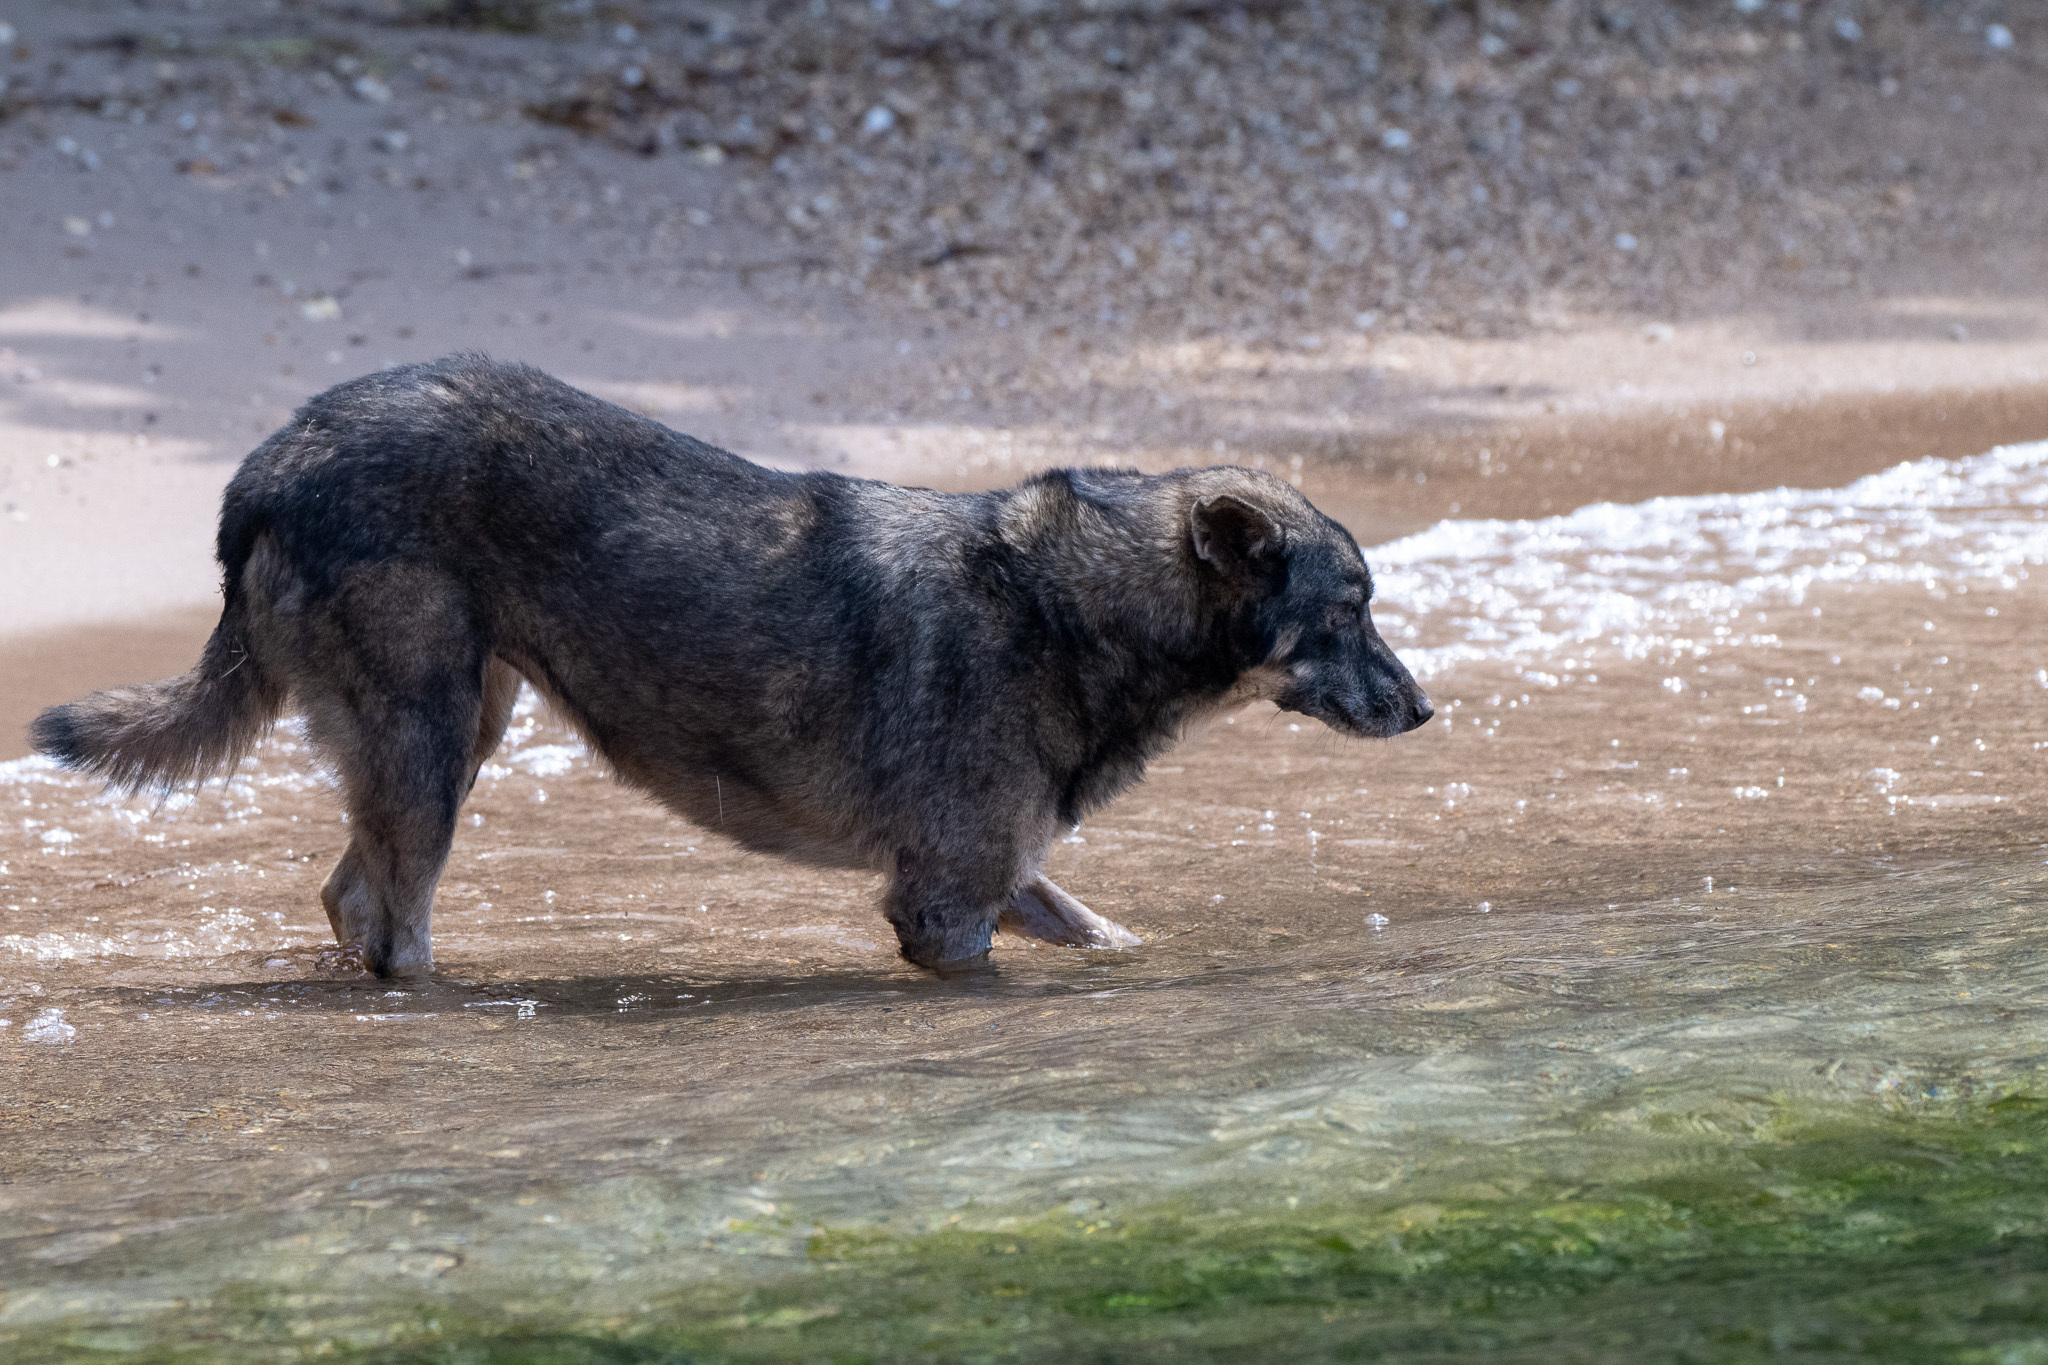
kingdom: Animalia
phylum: Chordata
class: Mammalia
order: Carnivora
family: Canidae
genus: Canis
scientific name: Canis lupus
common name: Gray wolf
